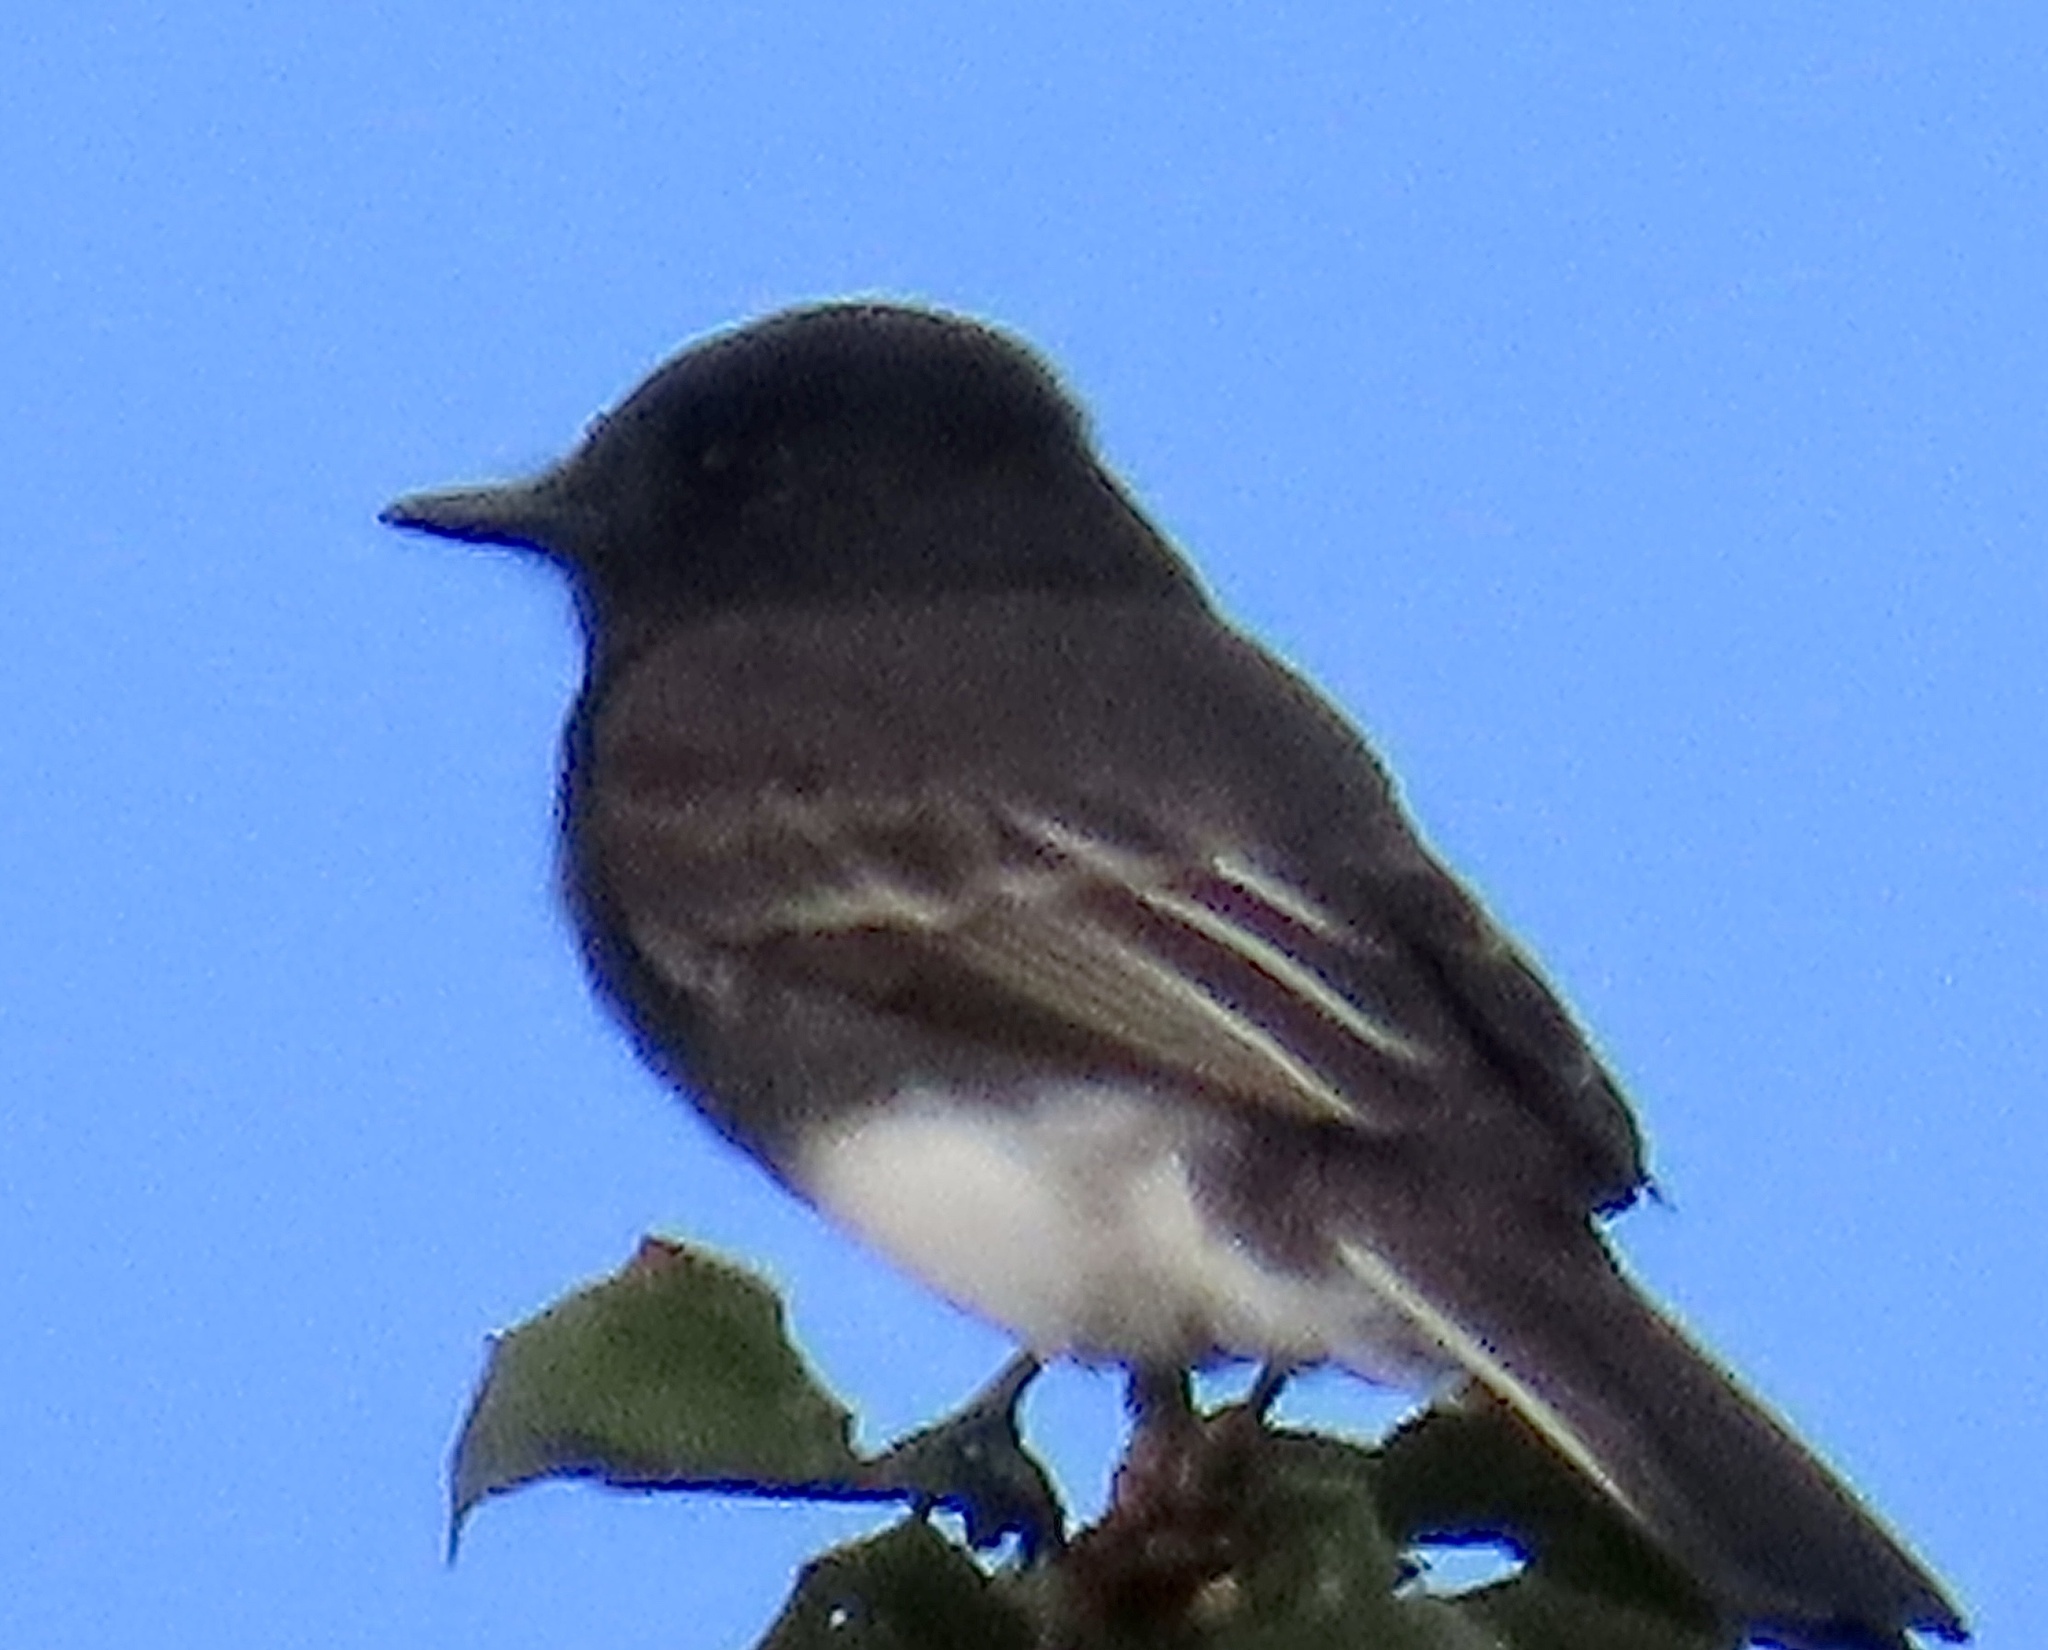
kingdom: Animalia
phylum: Chordata
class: Aves
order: Passeriformes
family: Tyrannidae
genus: Sayornis
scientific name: Sayornis nigricans
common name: Black phoebe
